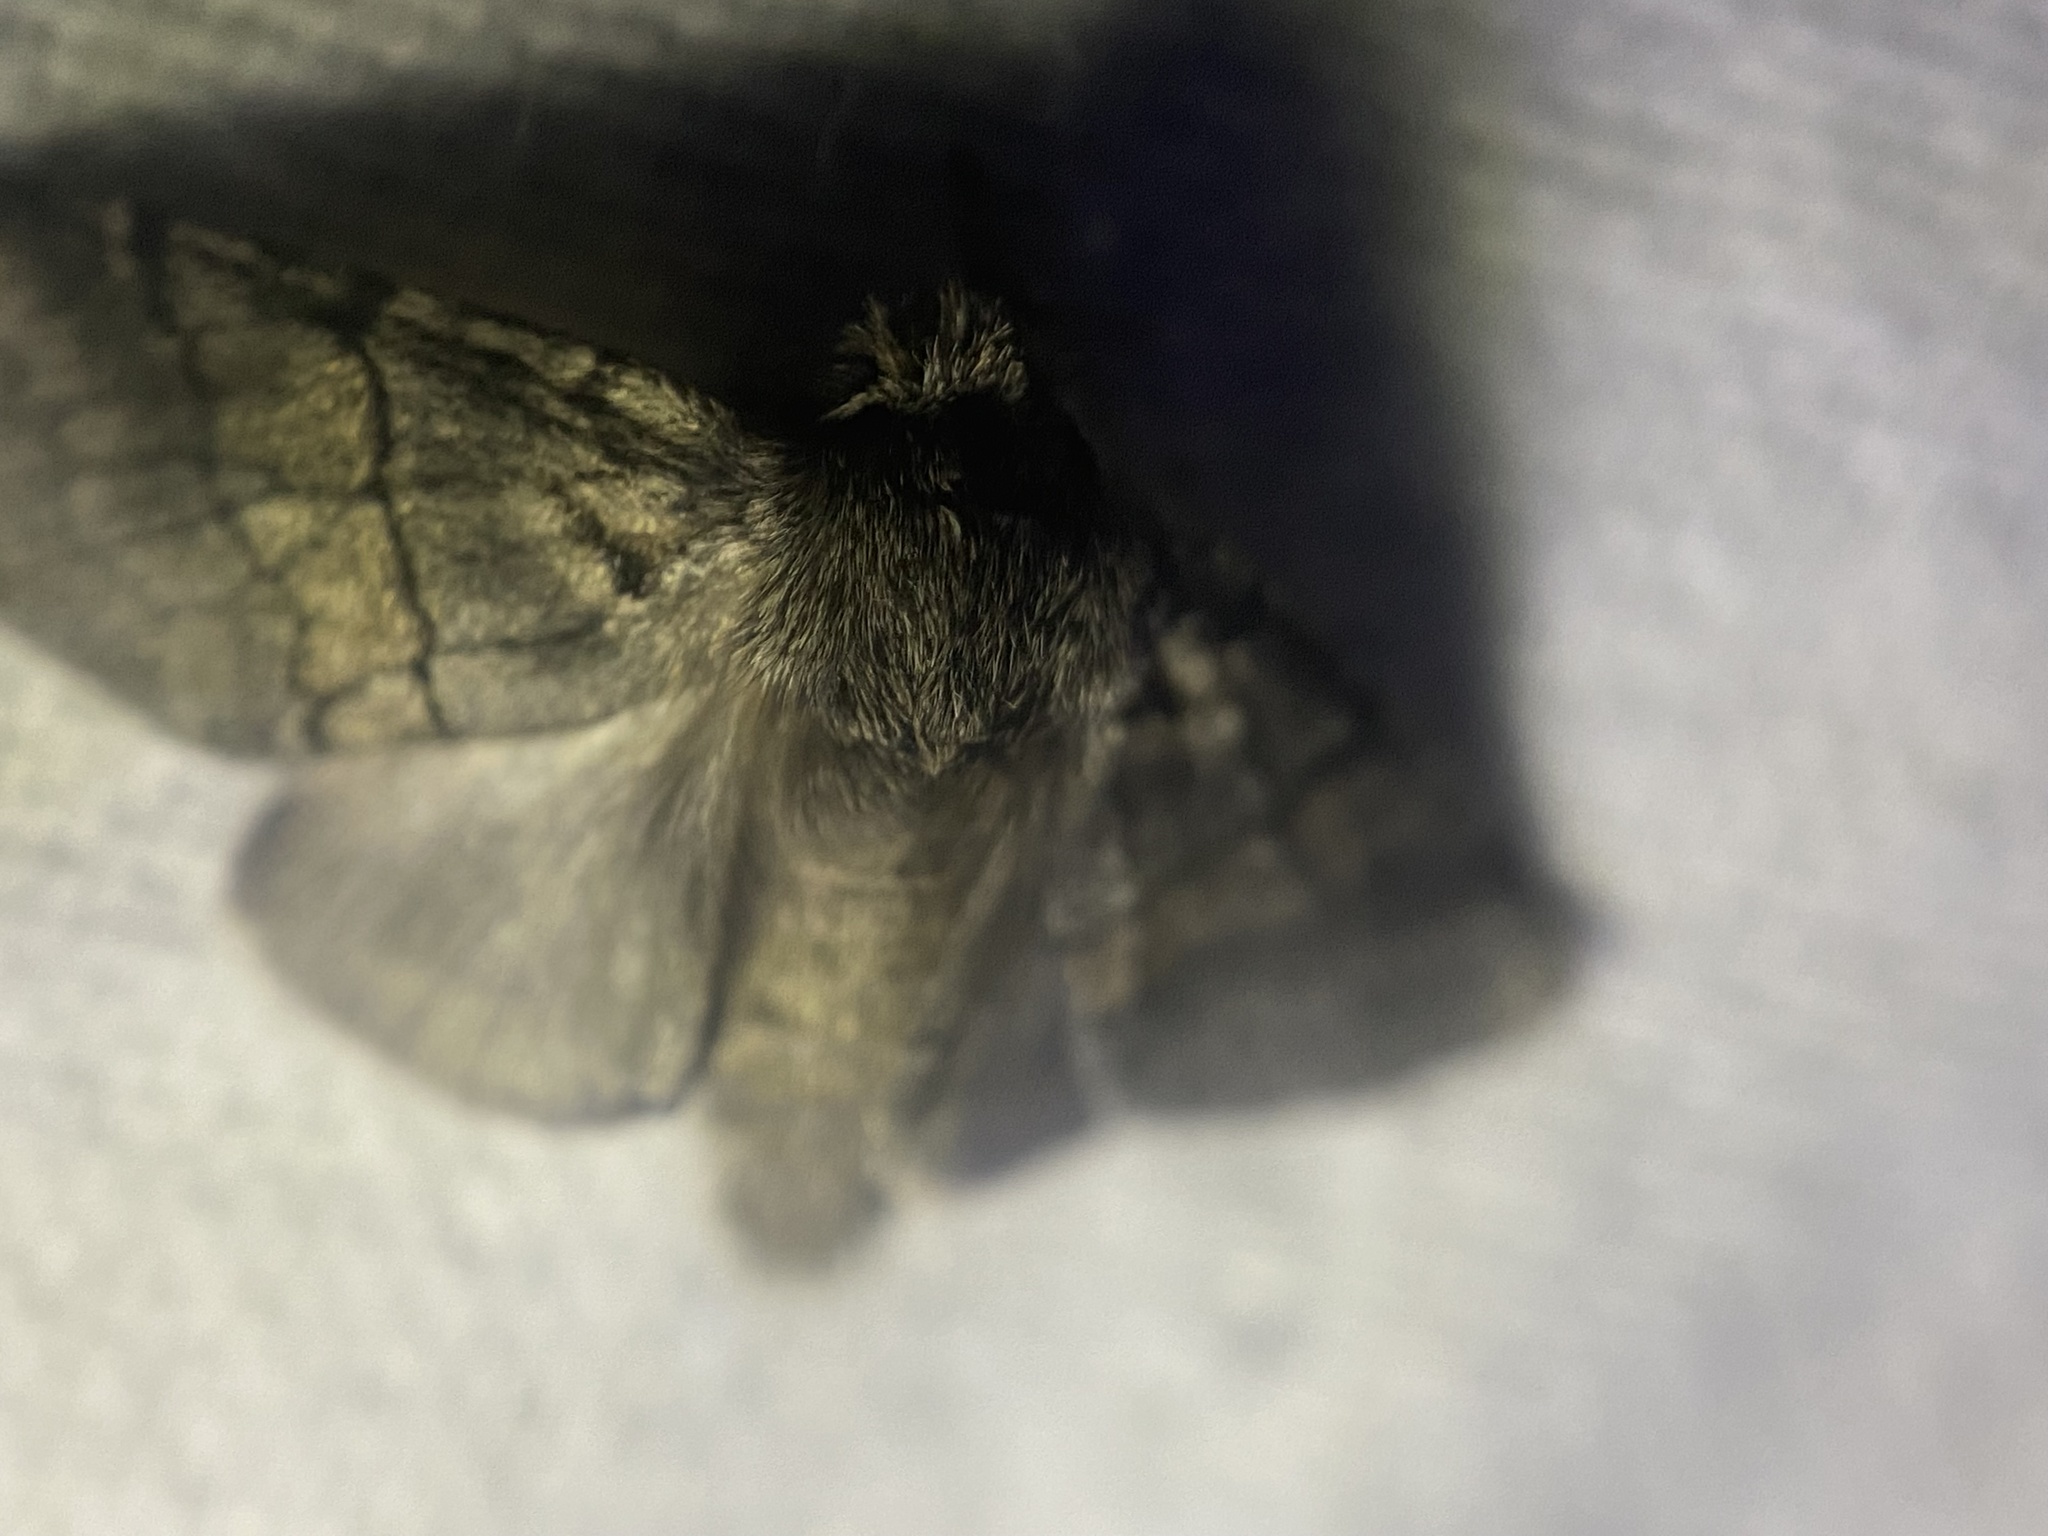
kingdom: Animalia
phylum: Arthropoda
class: Insecta
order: Lepidoptera
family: Notodontidae
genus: Gluphisia
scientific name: Gluphisia septentrionis
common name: Common gluphisia
